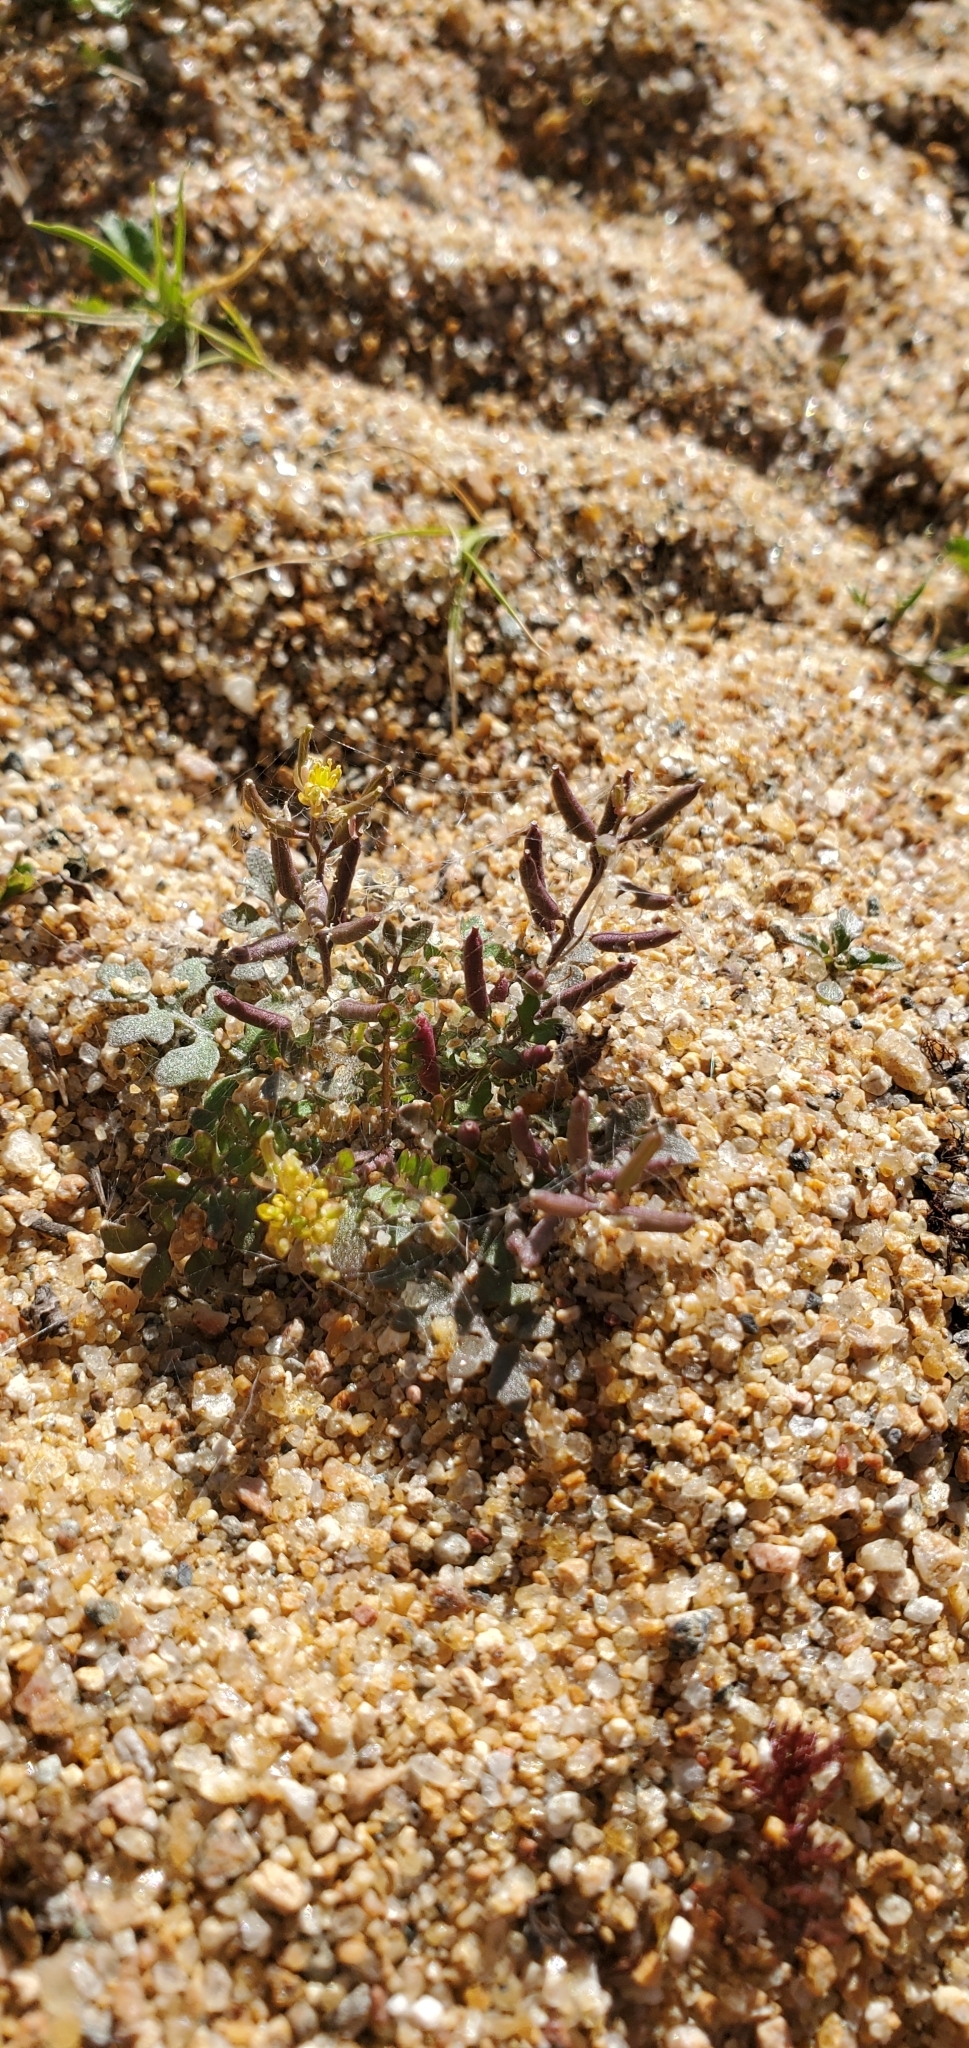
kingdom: Plantae
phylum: Tracheophyta
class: Magnoliopsida
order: Brassicales
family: Brassicaceae
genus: Rorippa
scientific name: Rorippa curvisiliqua
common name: Curve-pod yellow cress
